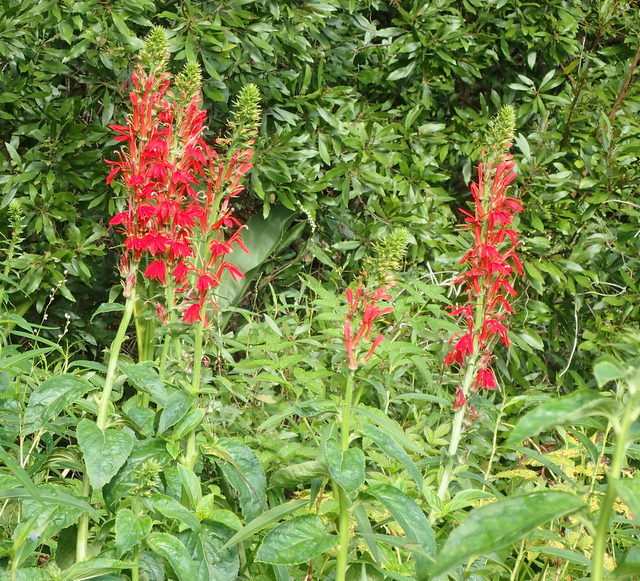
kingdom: Plantae
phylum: Tracheophyta
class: Magnoliopsida
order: Asterales
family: Campanulaceae
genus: Lobelia
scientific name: Lobelia cardinalis
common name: Cardinal flower
